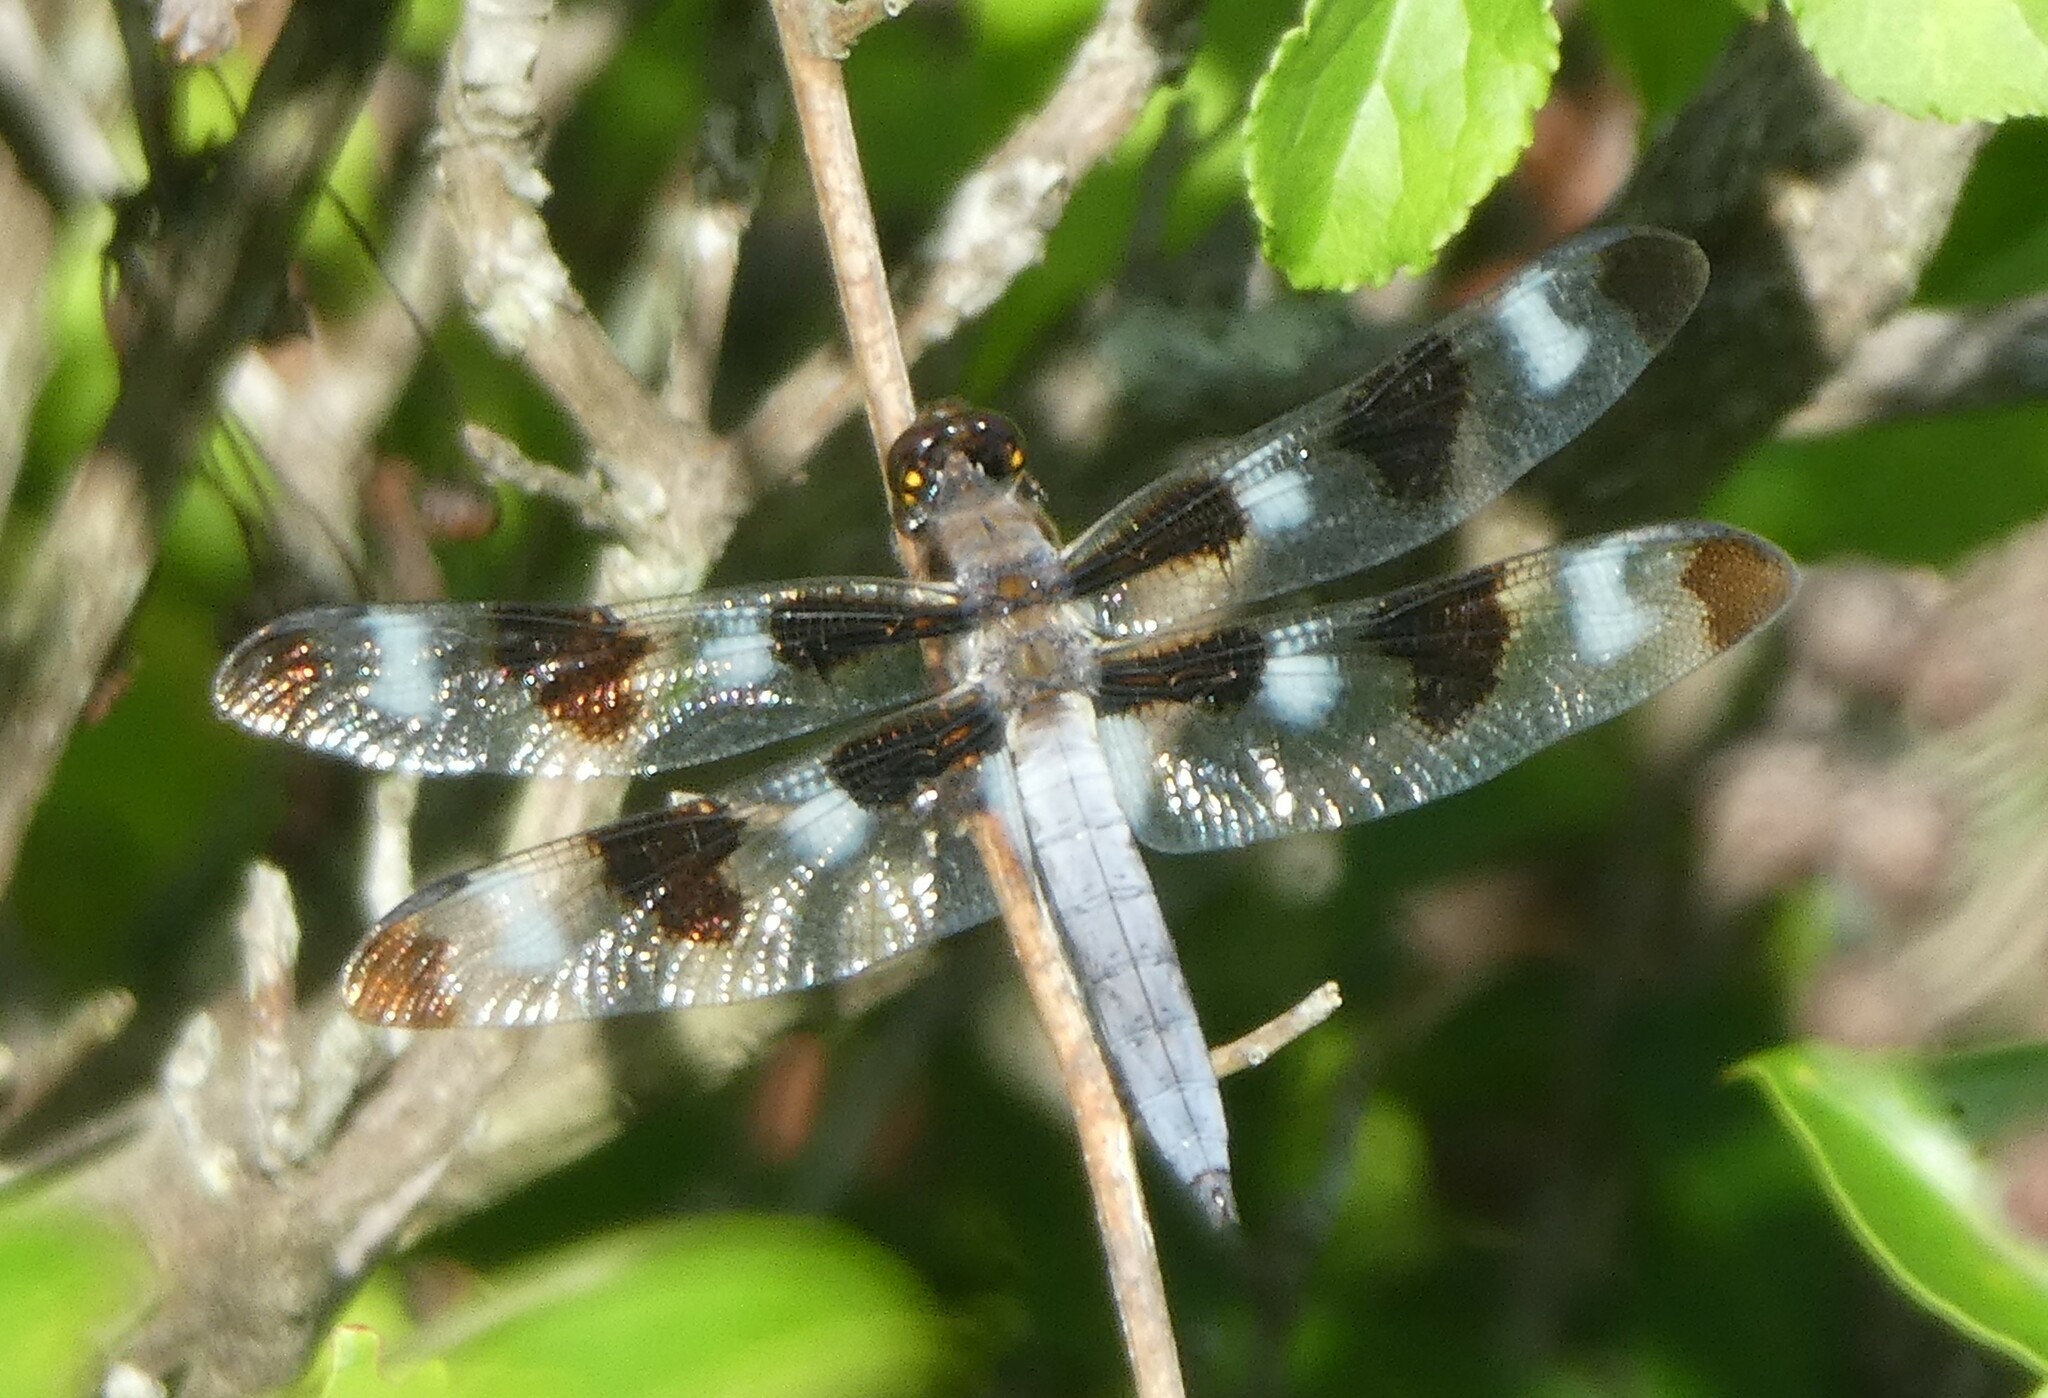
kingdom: Animalia
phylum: Arthropoda
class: Insecta
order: Odonata
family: Libellulidae
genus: Libellula
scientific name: Libellula pulchella
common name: Twelve-spotted skimmer
